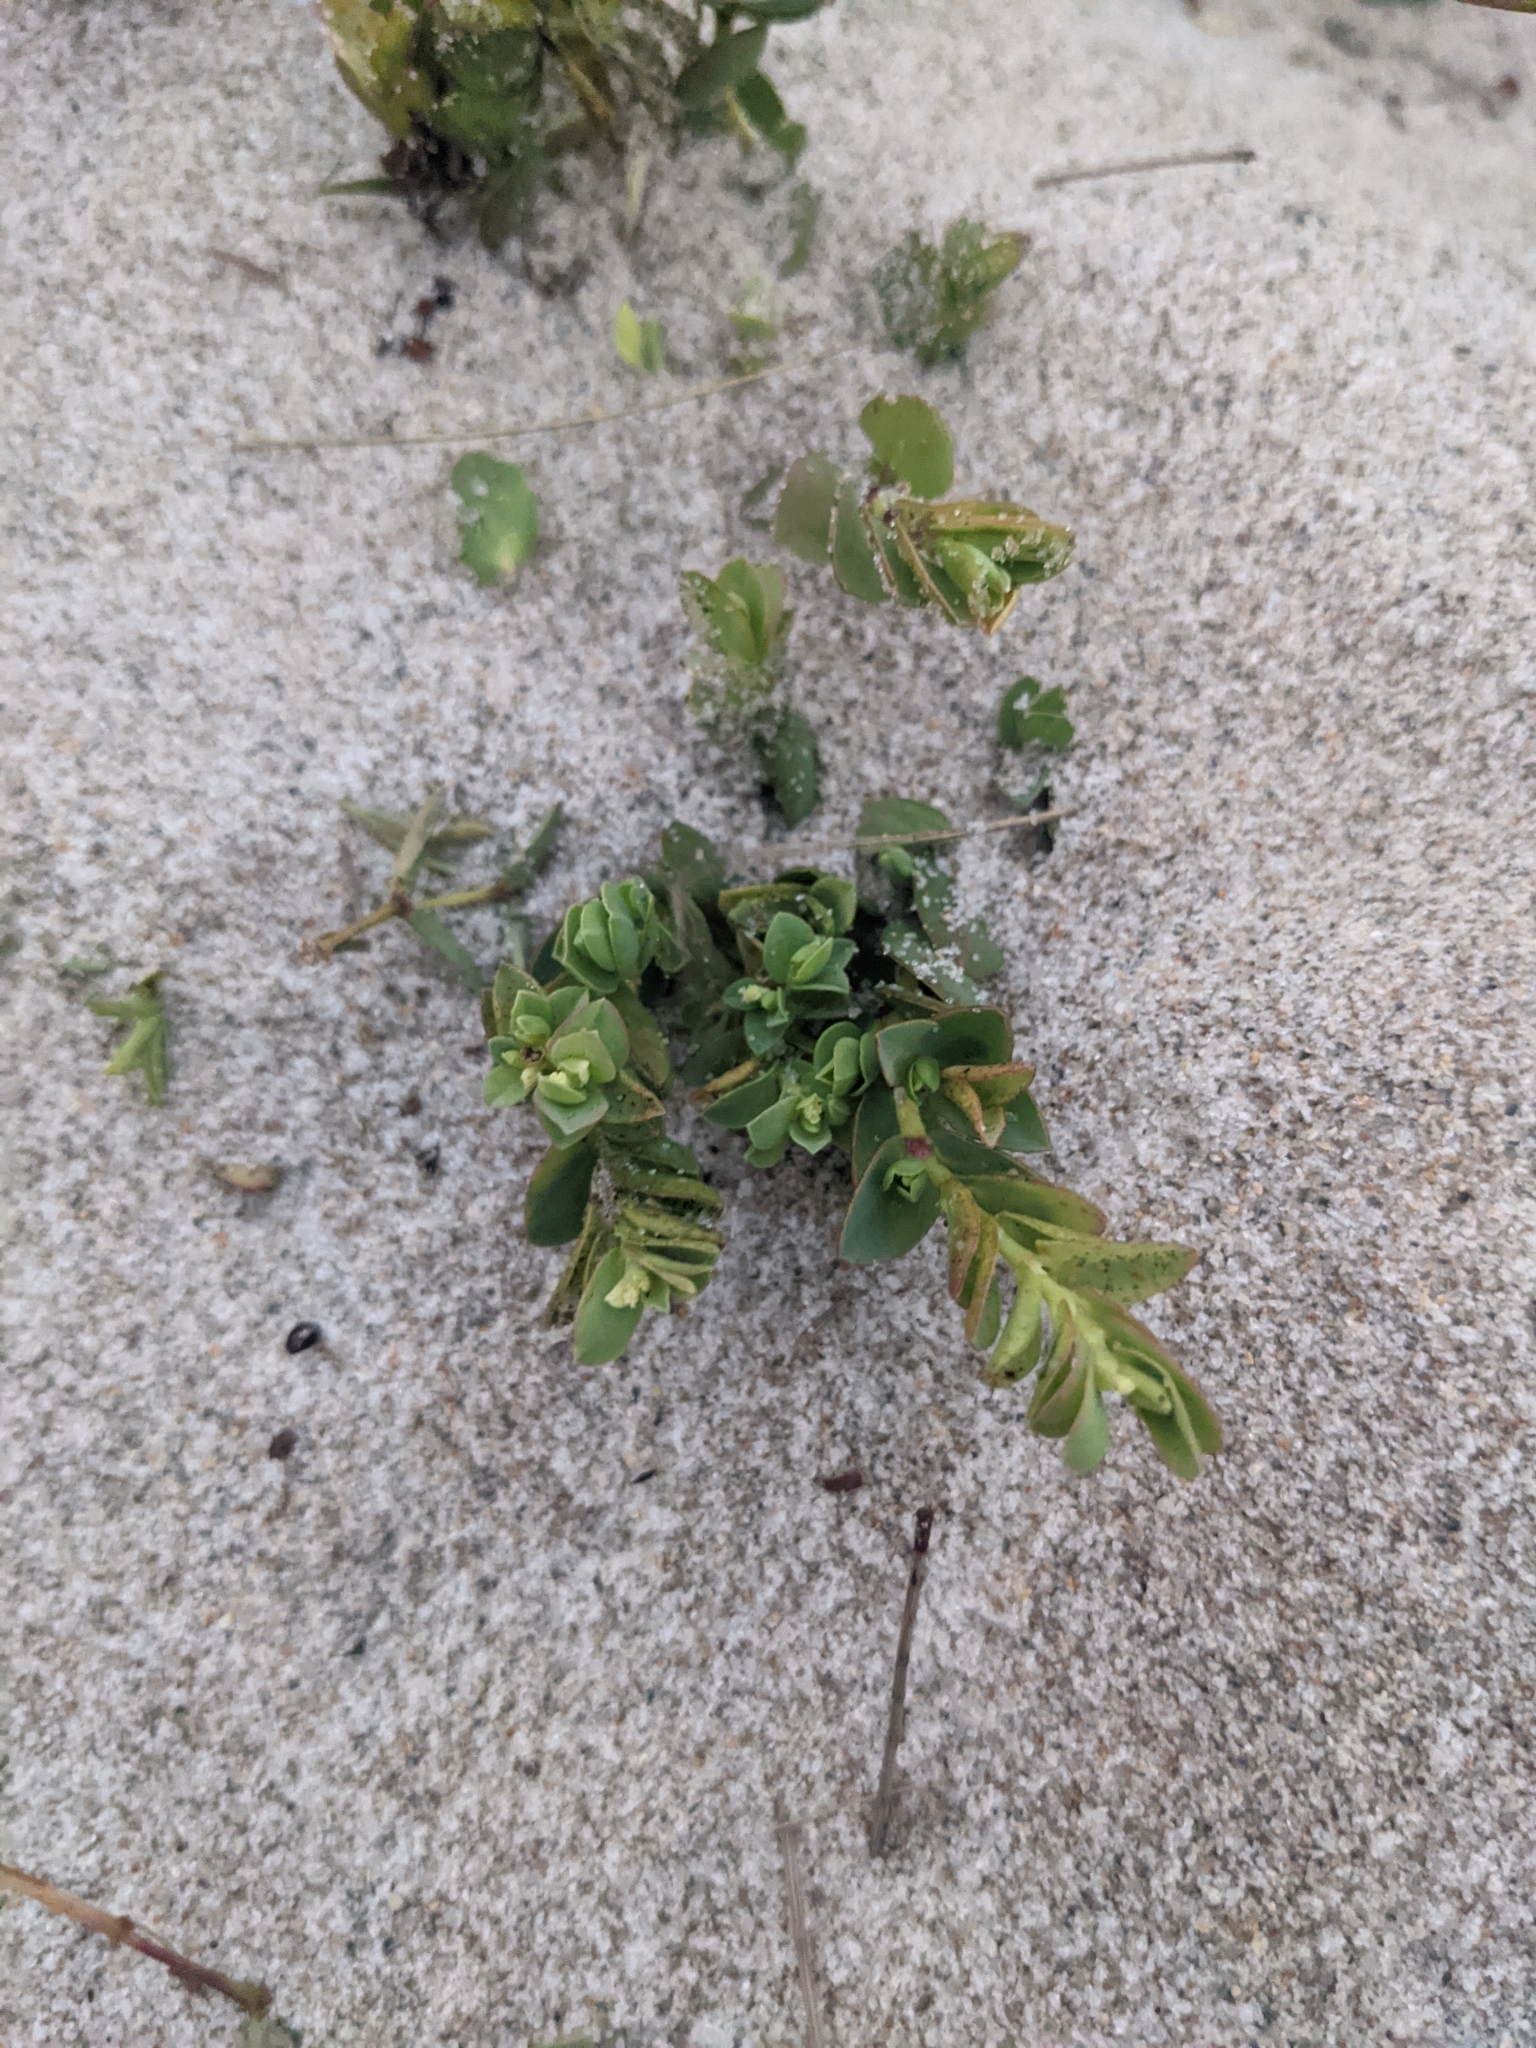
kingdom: Plantae
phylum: Tracheophyta
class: Magnoliopsida
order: Malpighiales
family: Euphorbiaceae
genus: Euphorbia
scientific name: Euphorbia mesembryanthemifolia
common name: Coastal beach sandmat
